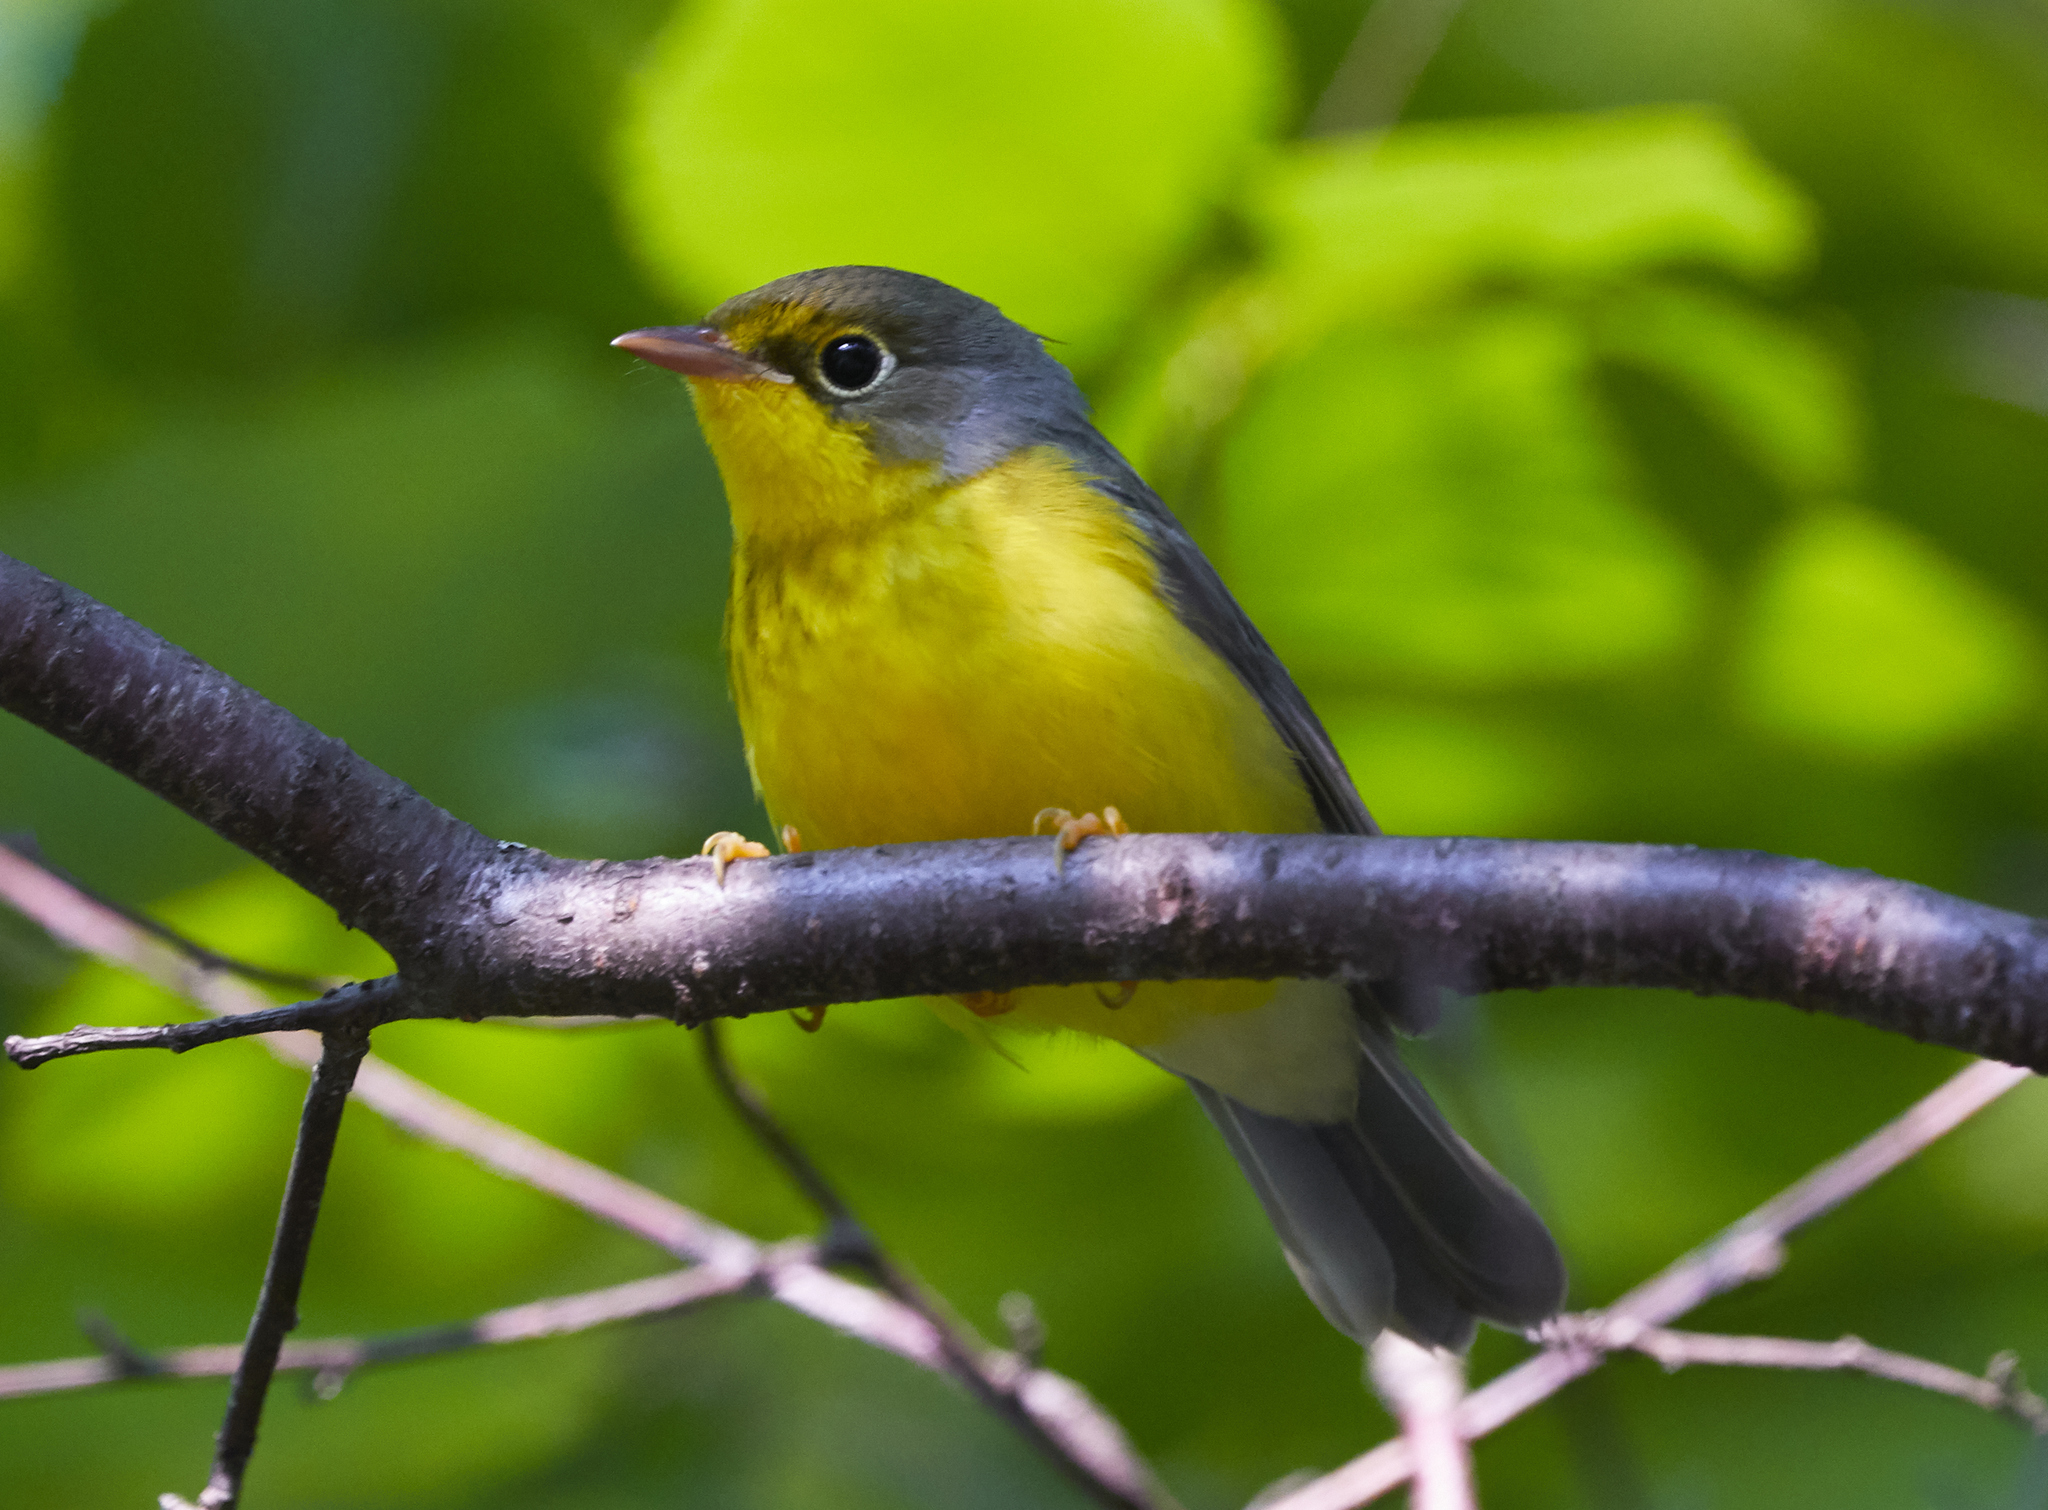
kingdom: Animalia
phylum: Chordata
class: Aves
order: Passeriformes
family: Parulidae
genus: Cardellina
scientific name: Cardellina canadensis
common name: Canada warbler
